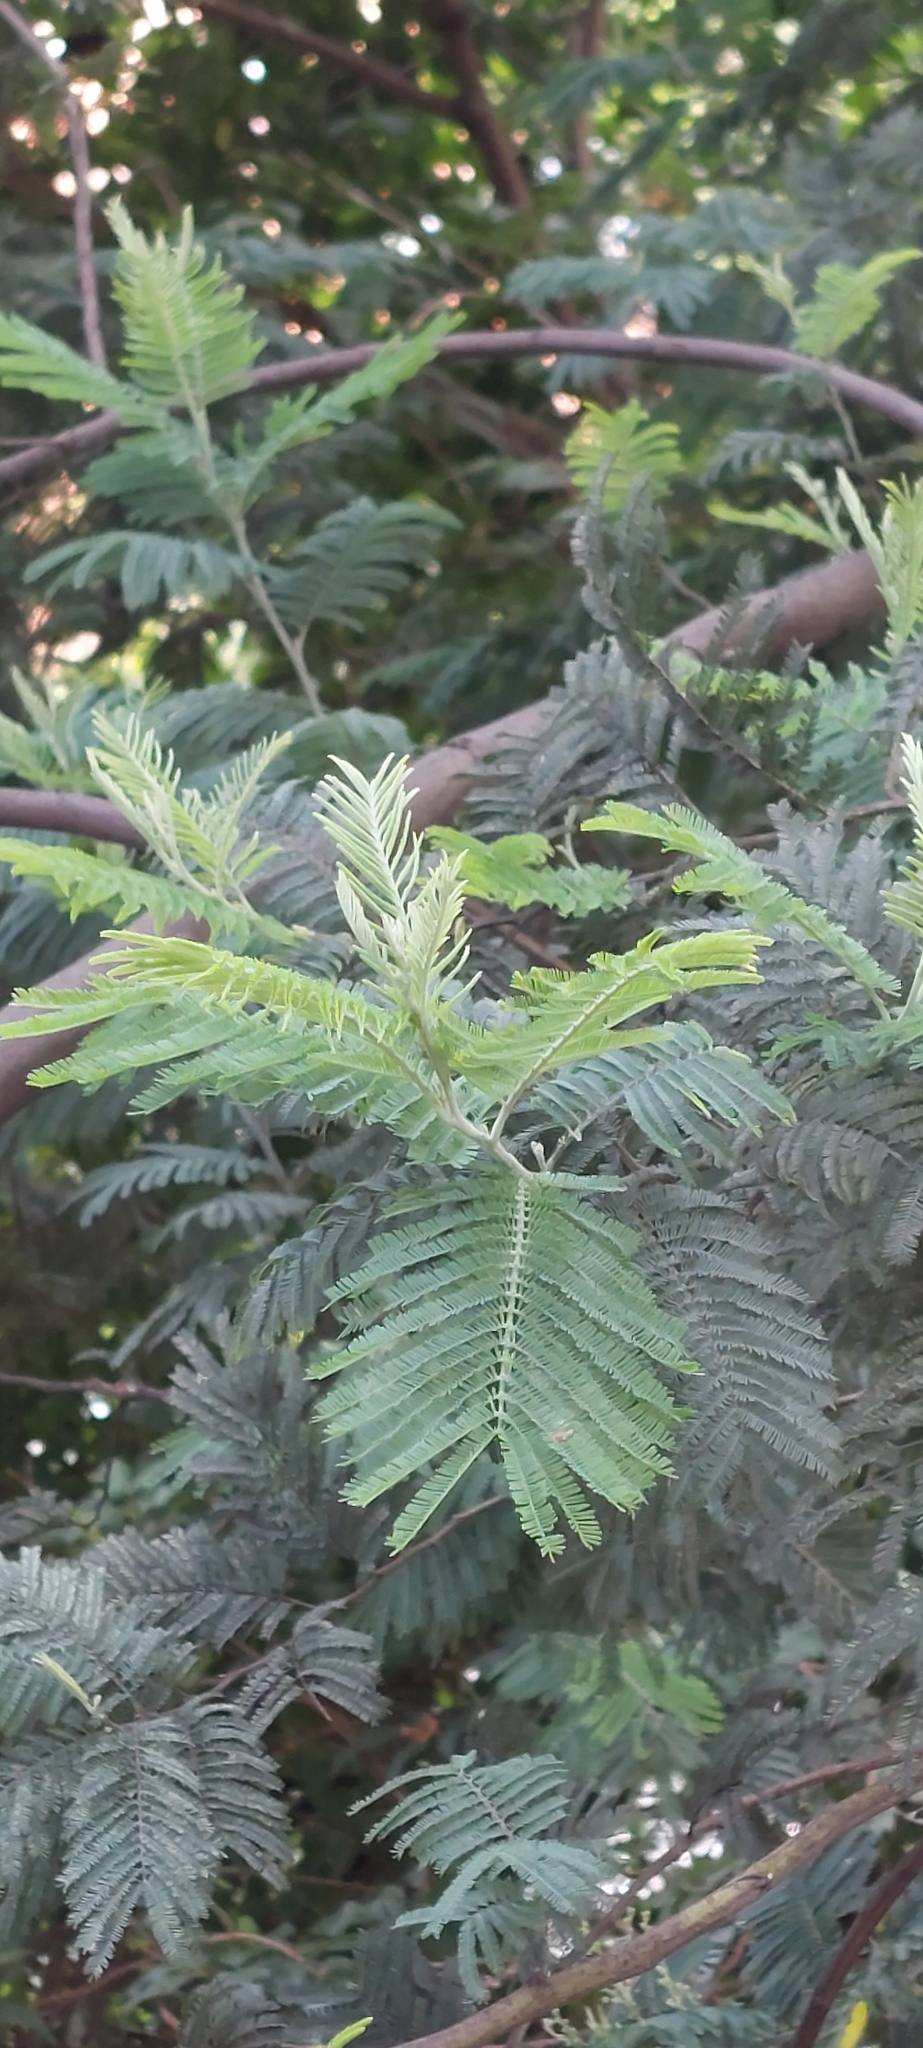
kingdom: Plantae
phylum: Tracheophyta
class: Magnoliopsida
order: Fabales
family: Fabaceae
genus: Acacia
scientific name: Acacia dealbata
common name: Silver wattle
